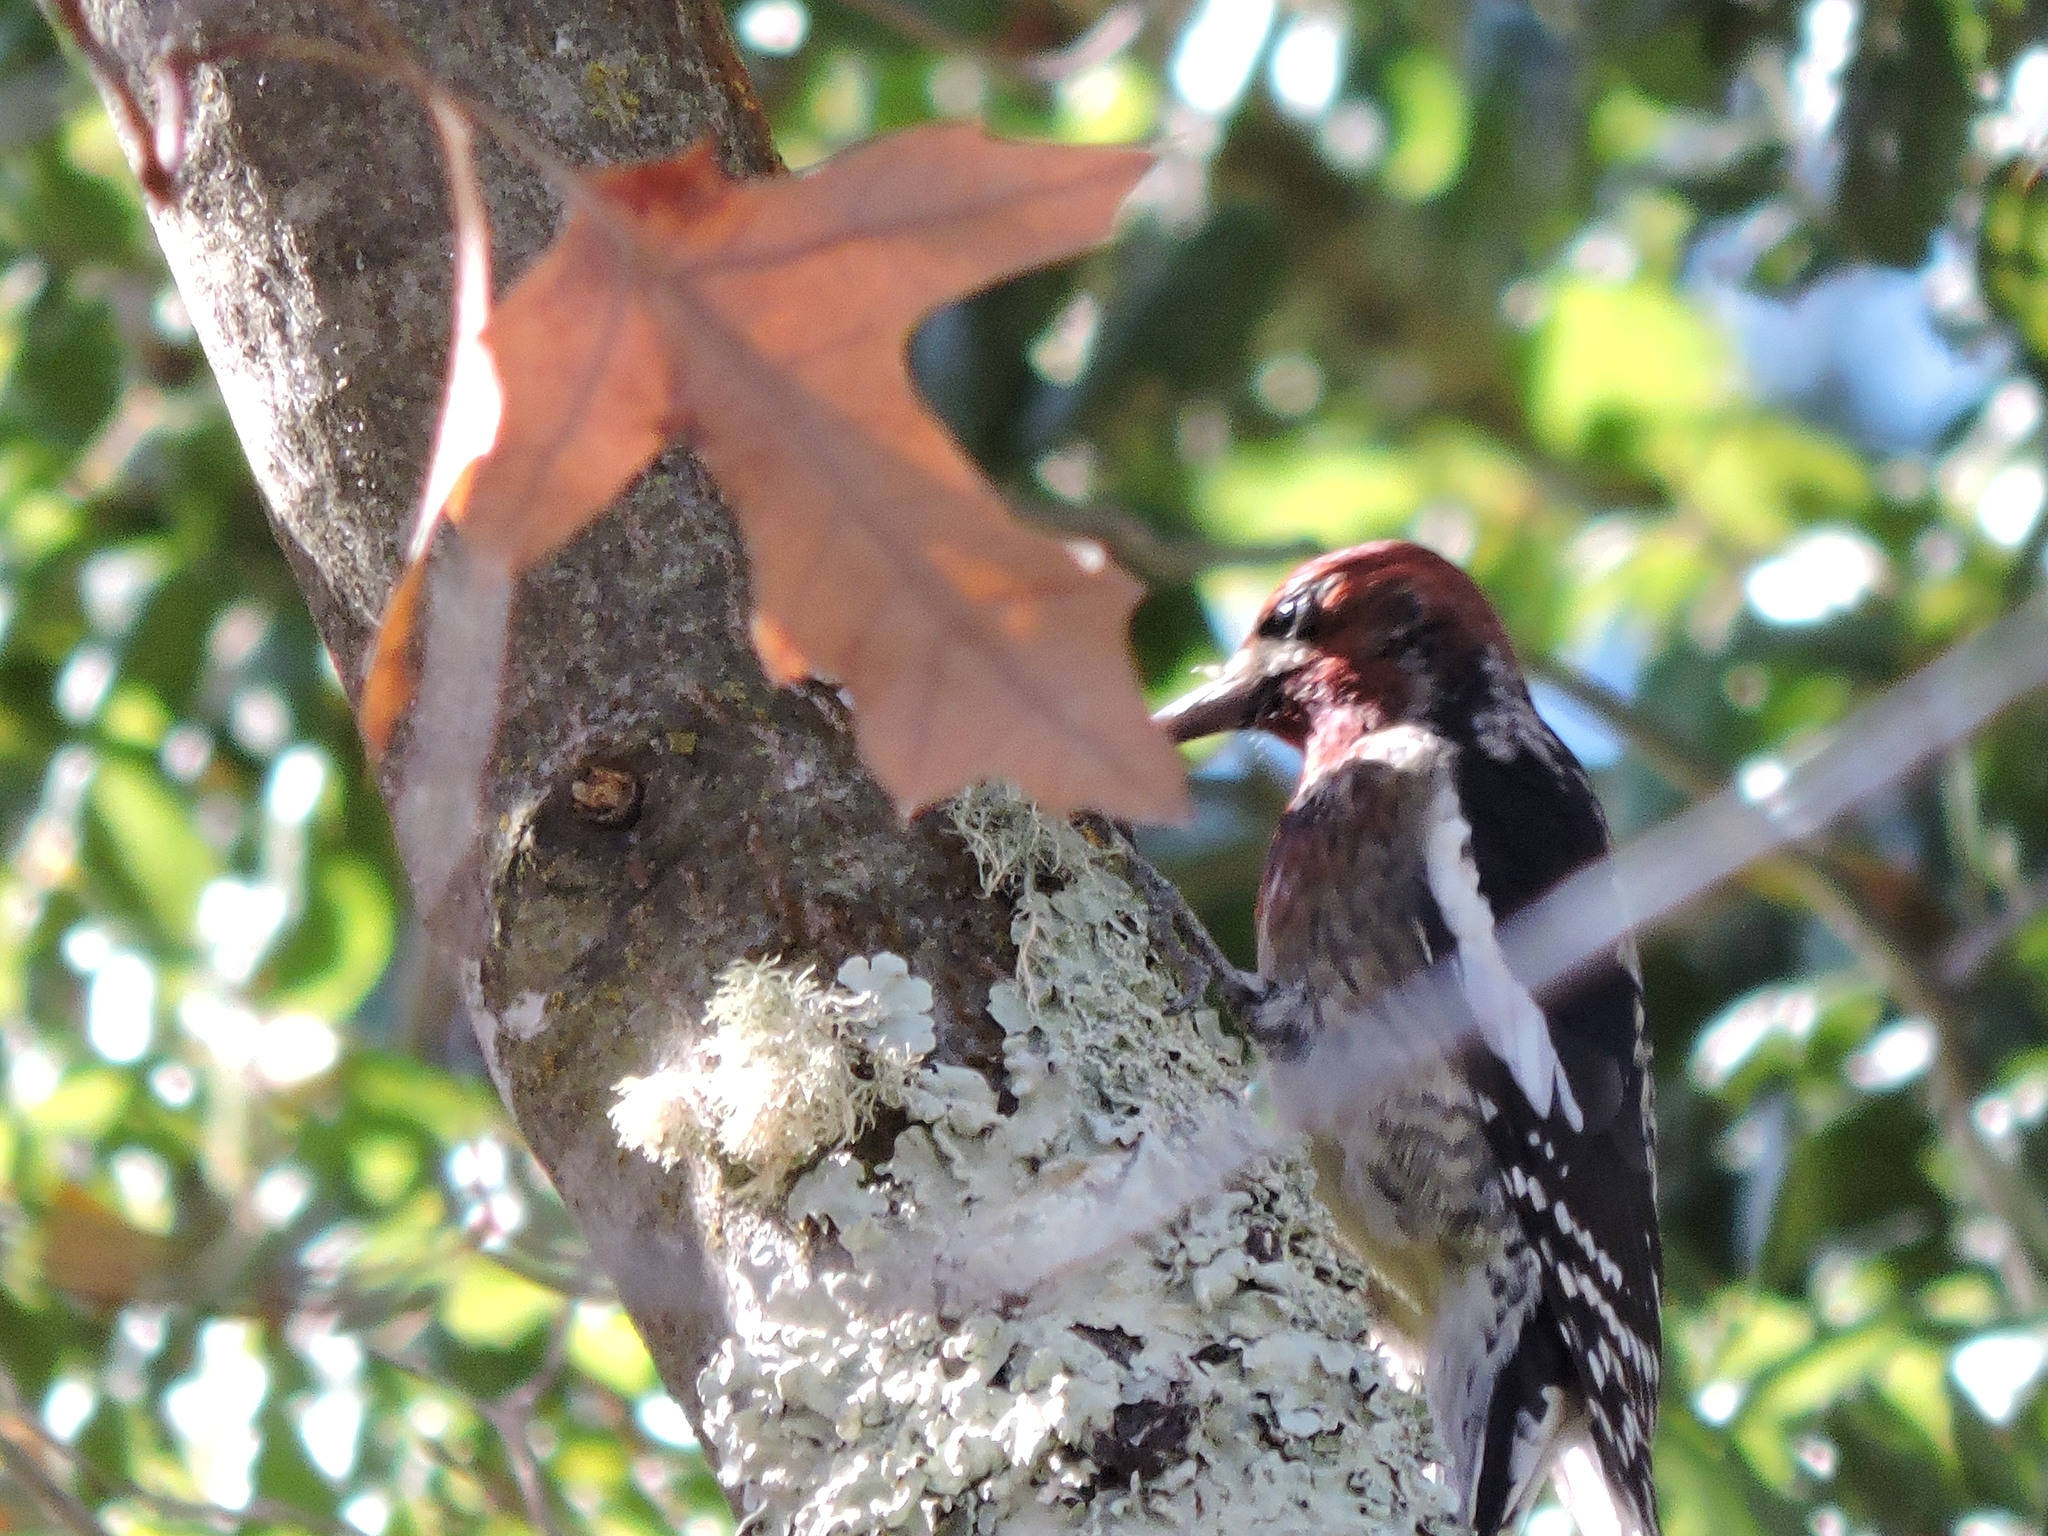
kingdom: Animalia
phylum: Chordata
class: Aves
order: Piciformes
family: Picidae
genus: Sphyrapicus
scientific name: Sphyrapicus ruber
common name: Red-breasted sapsucker
